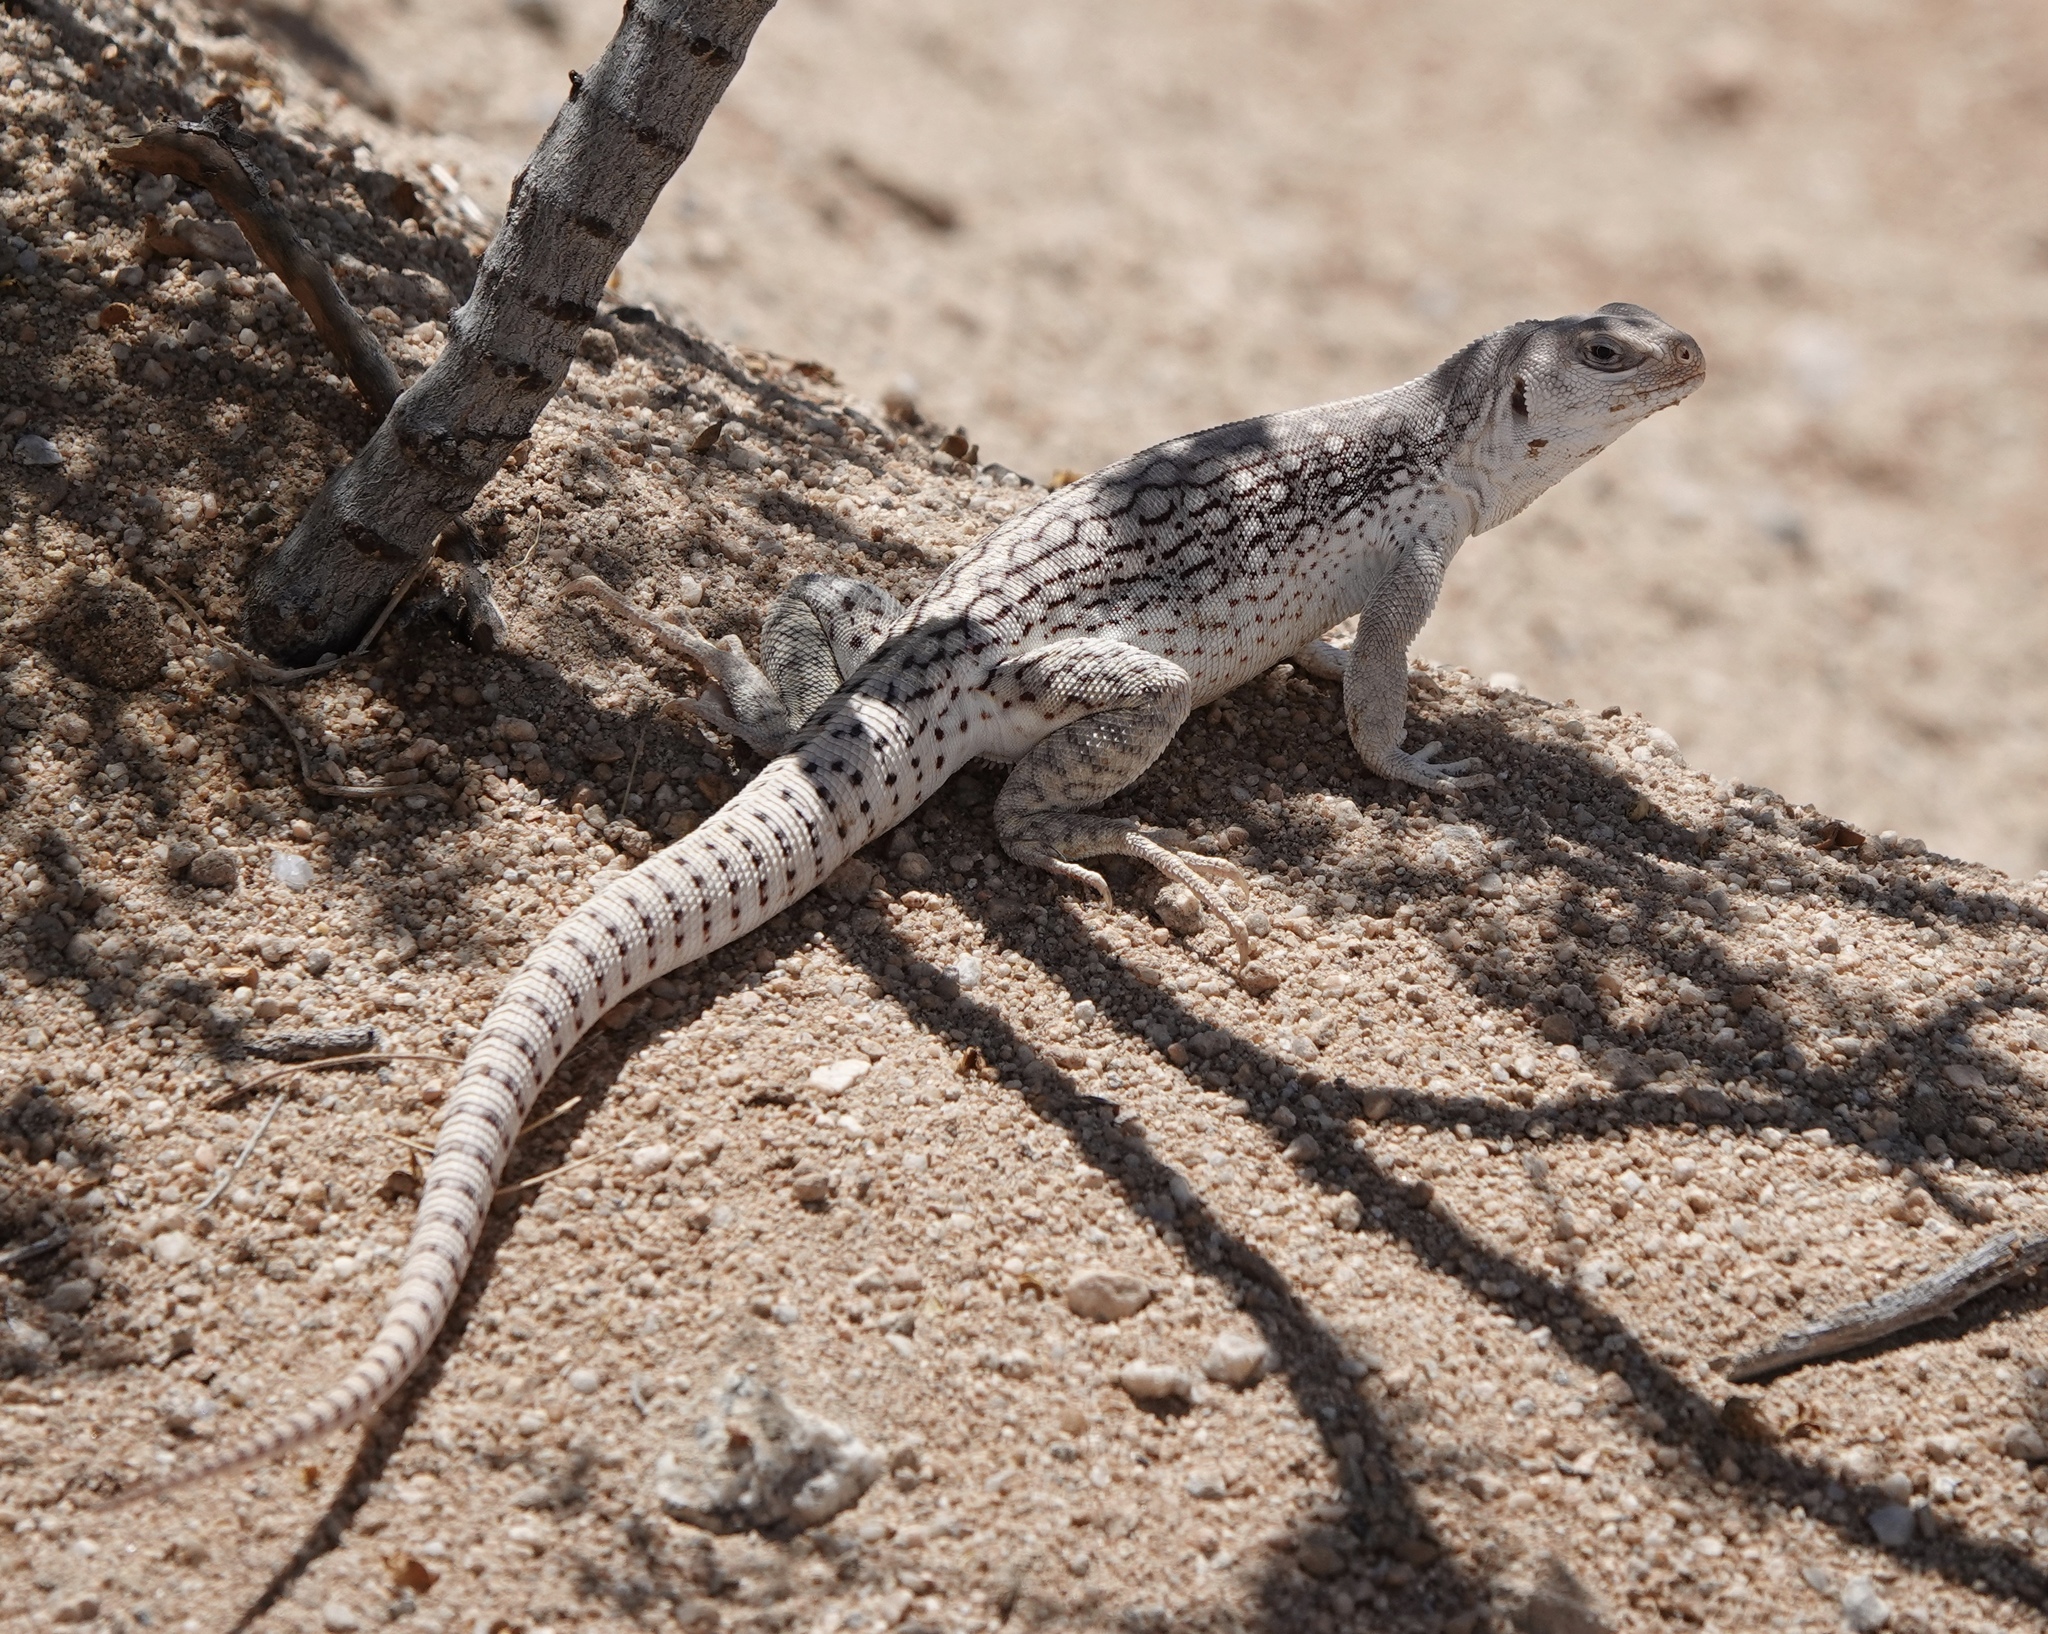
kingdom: Animalia
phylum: Chordata
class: Squamata
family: Iguanidae
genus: Dipsosaurus
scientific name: Dipsosaurus dorsalis
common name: Desert iguana
